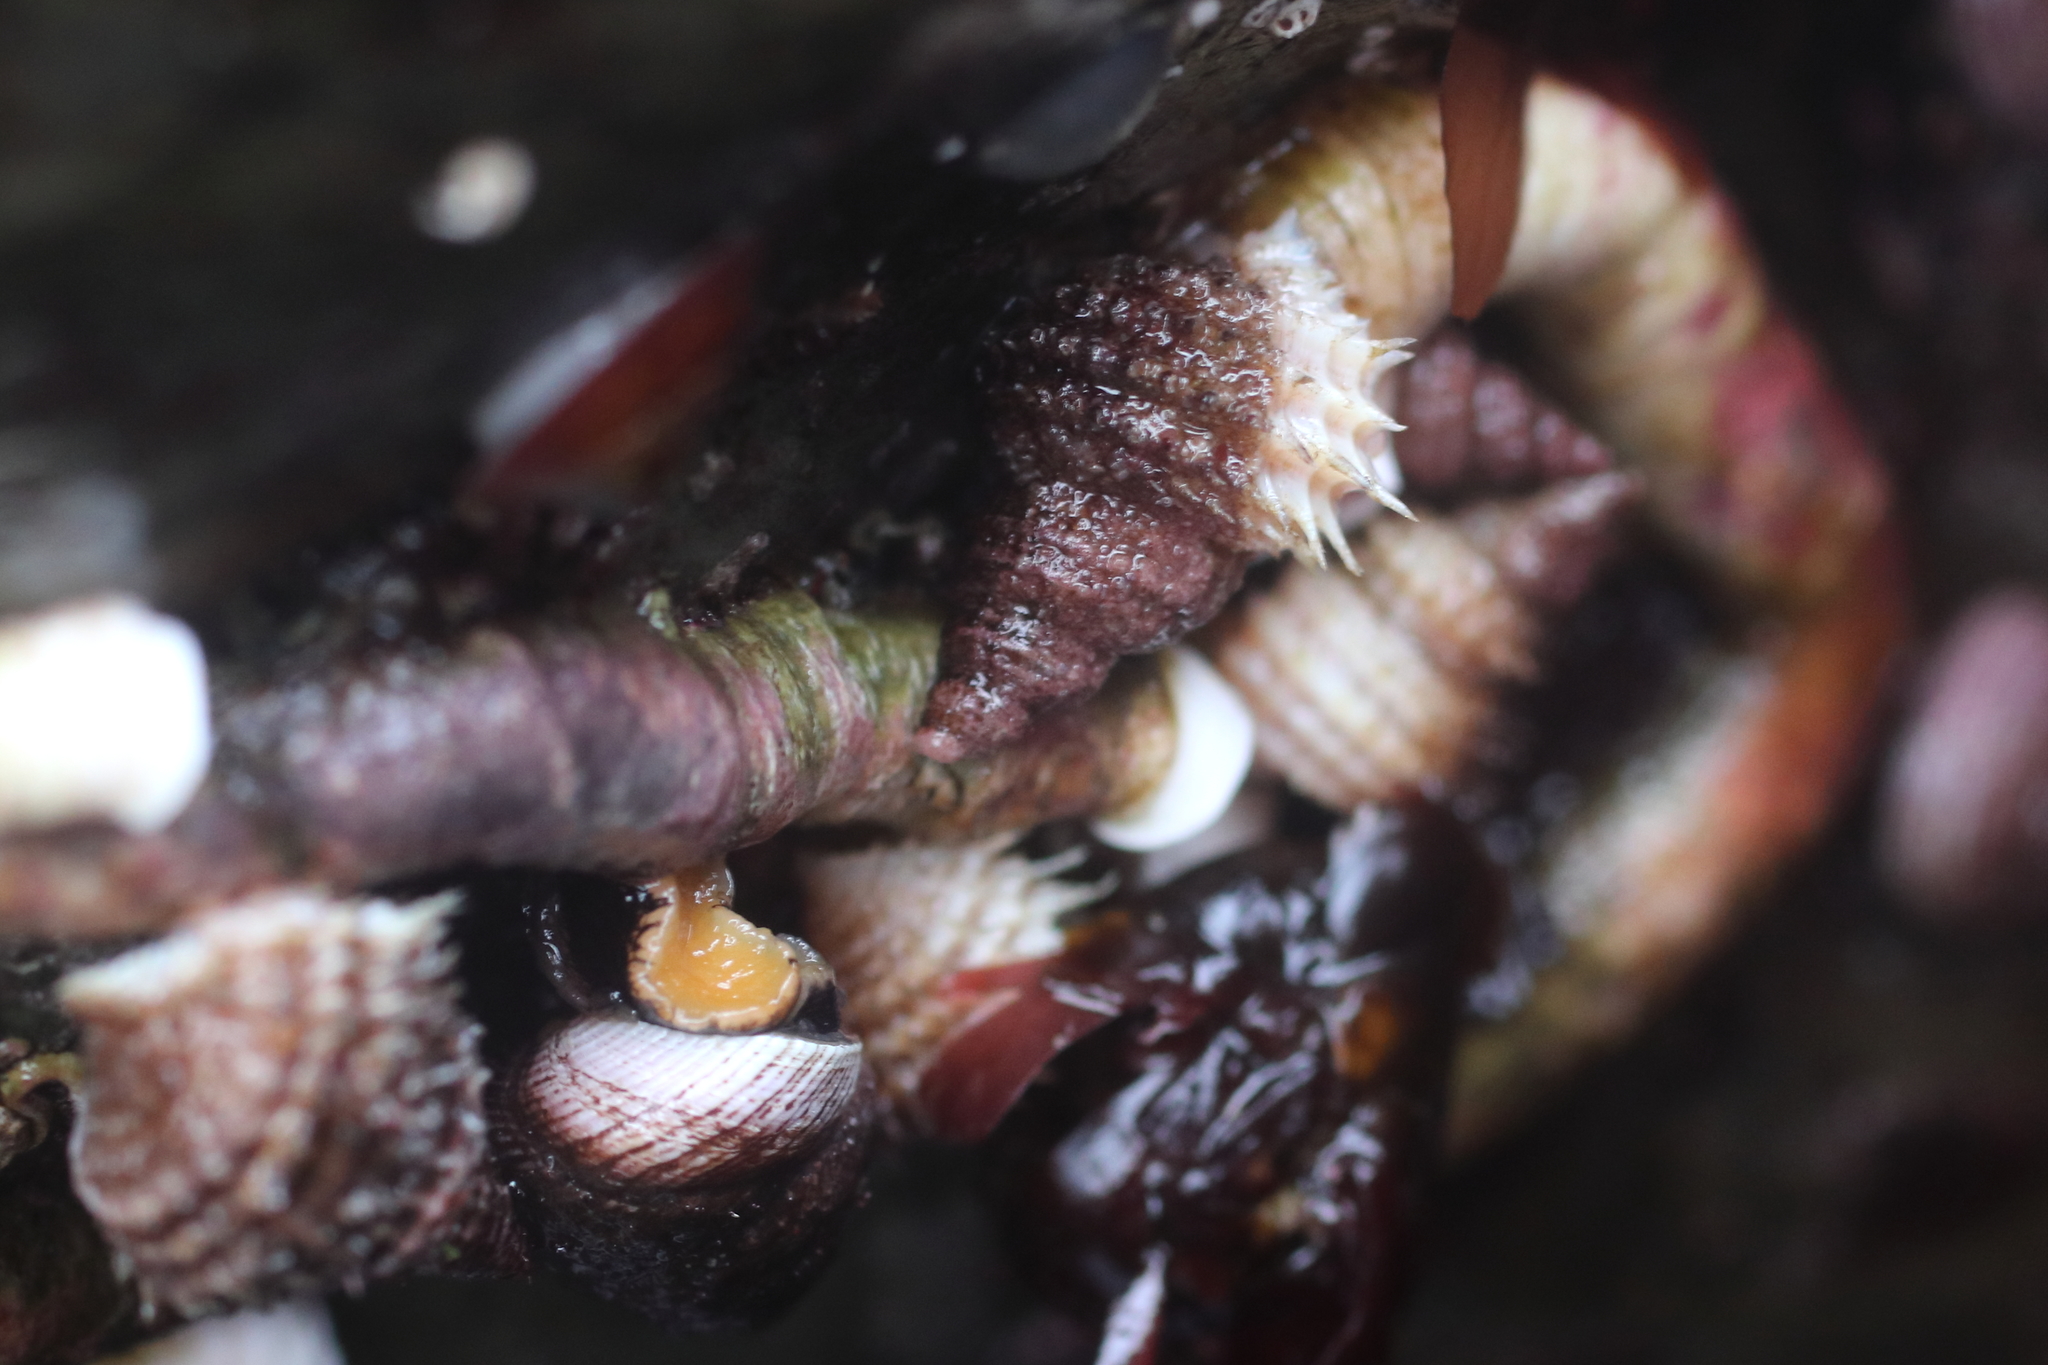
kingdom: Animalia
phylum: Mollusca
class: Gastropoda
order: Littorinimorpha
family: Capulidae
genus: Trichotropis
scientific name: Trichotropis cancellata
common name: Cancellate hairysnail
